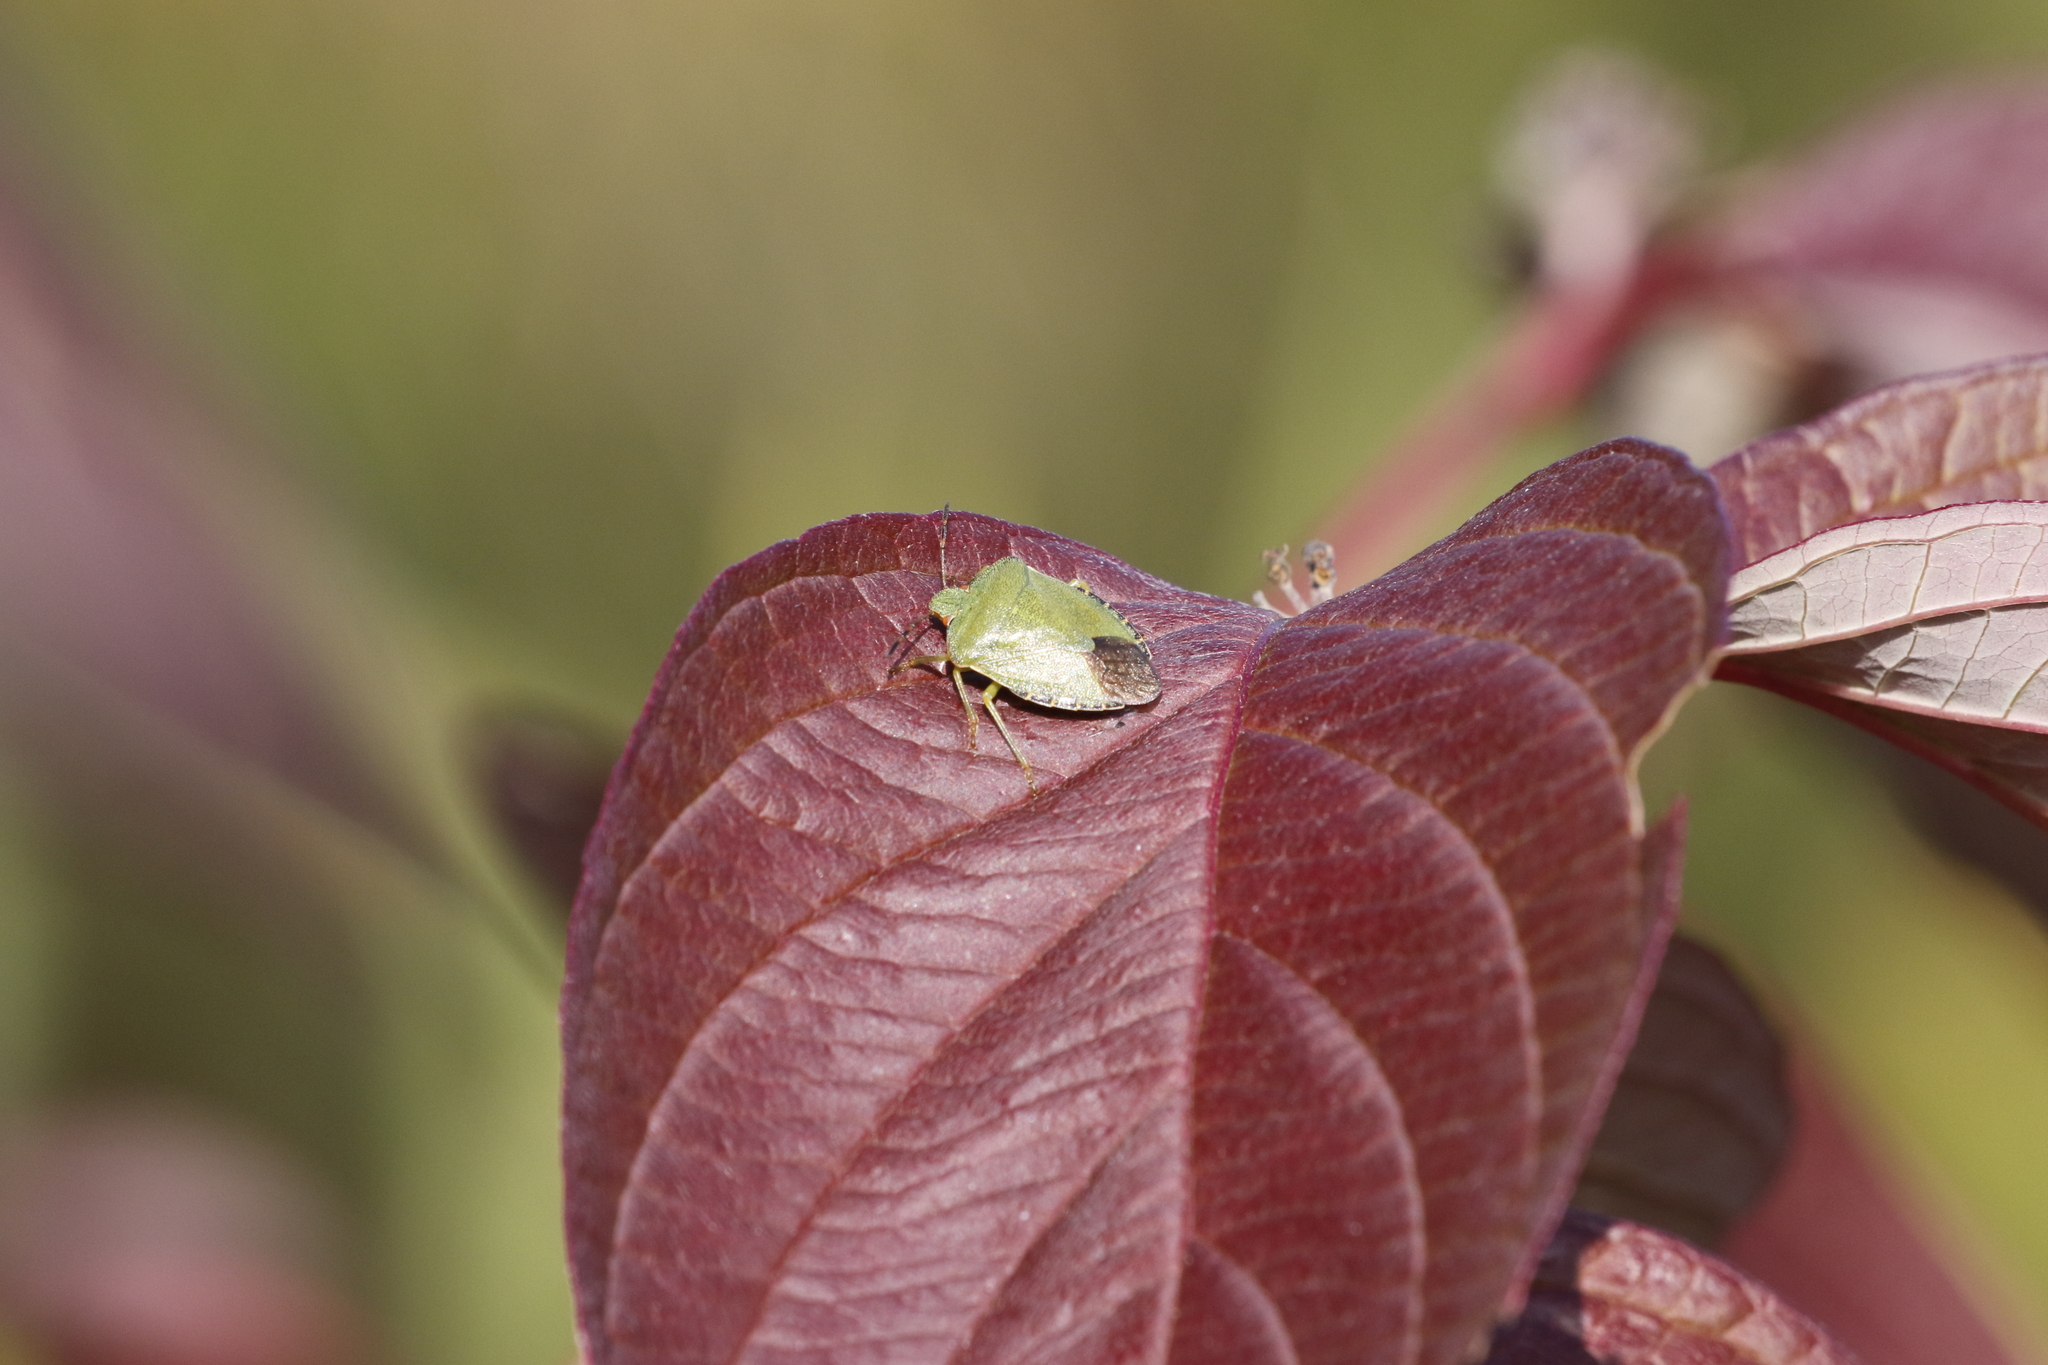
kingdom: Animalia
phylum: Arthropoda
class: Insecta
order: Hemiptera
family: Pentatomidae
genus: Palomena
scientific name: Palomena prasina
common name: Green shieldbug
